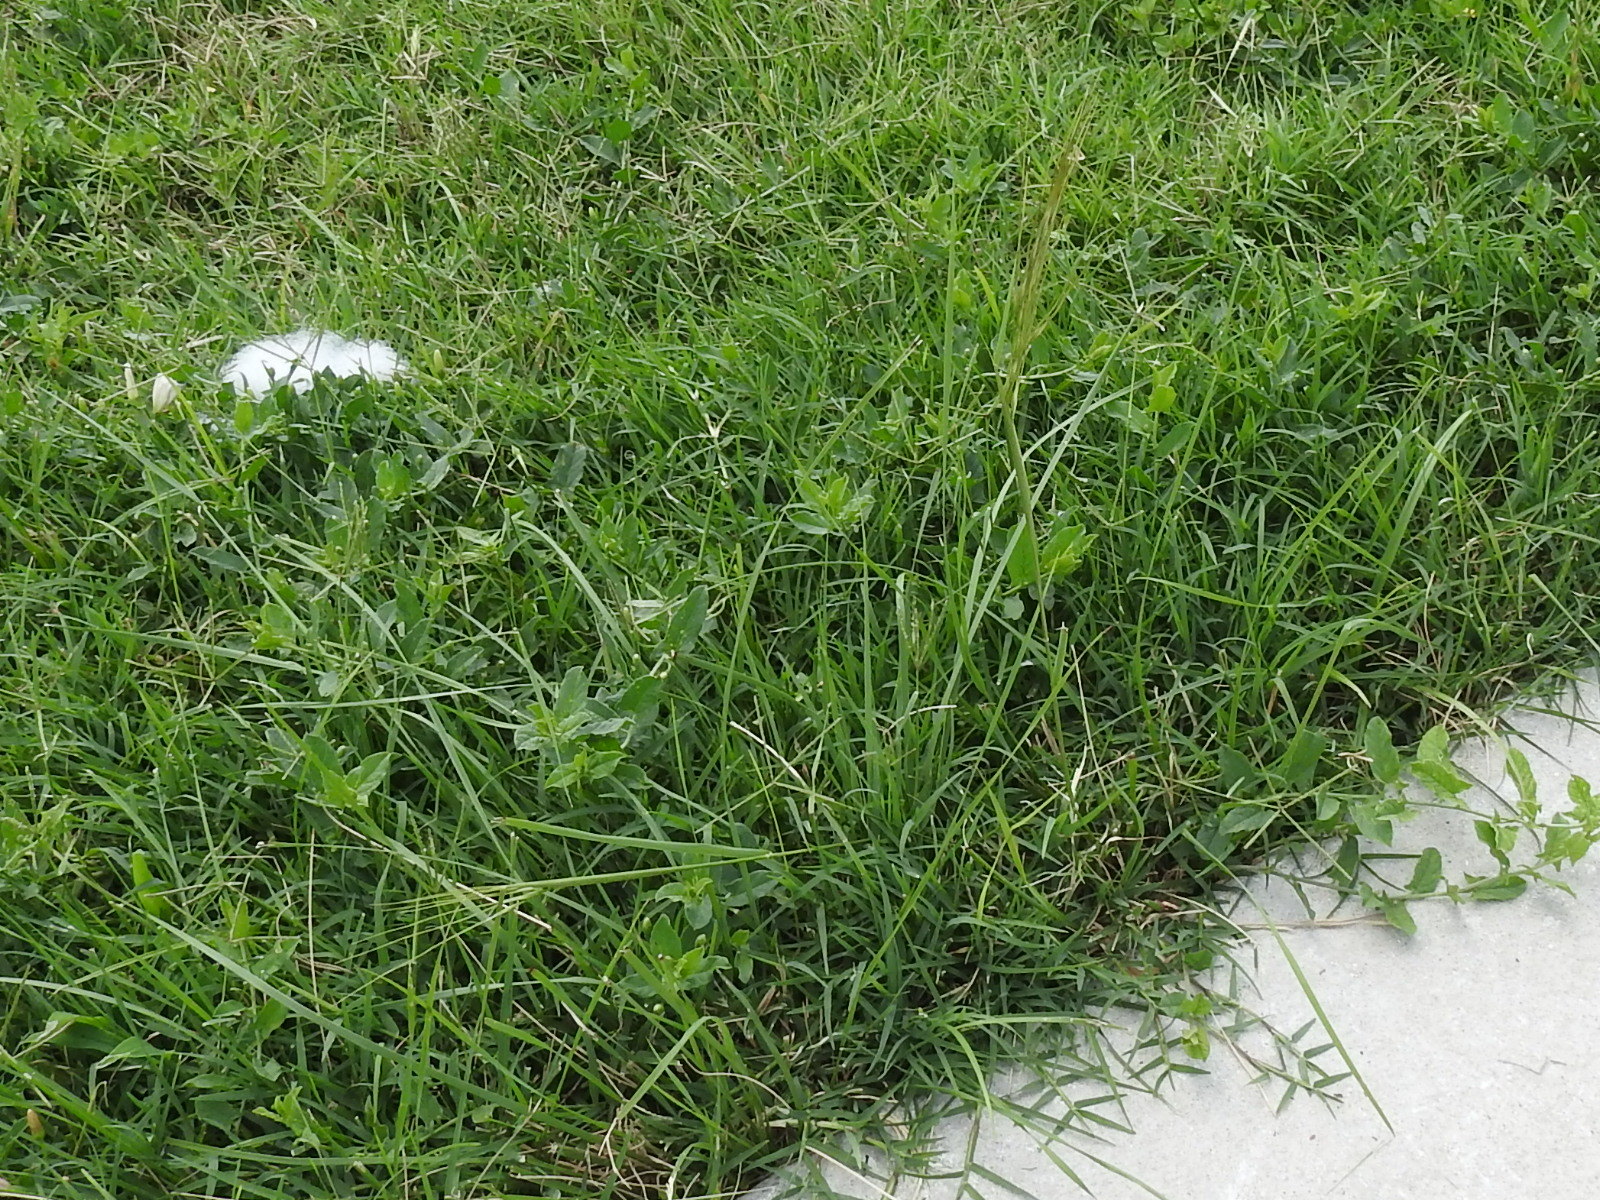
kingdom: Plantae
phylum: Tracheophyta
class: Liliopsida
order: Poales
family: Poaceae
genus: Nassella
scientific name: Nassella leucotricha
